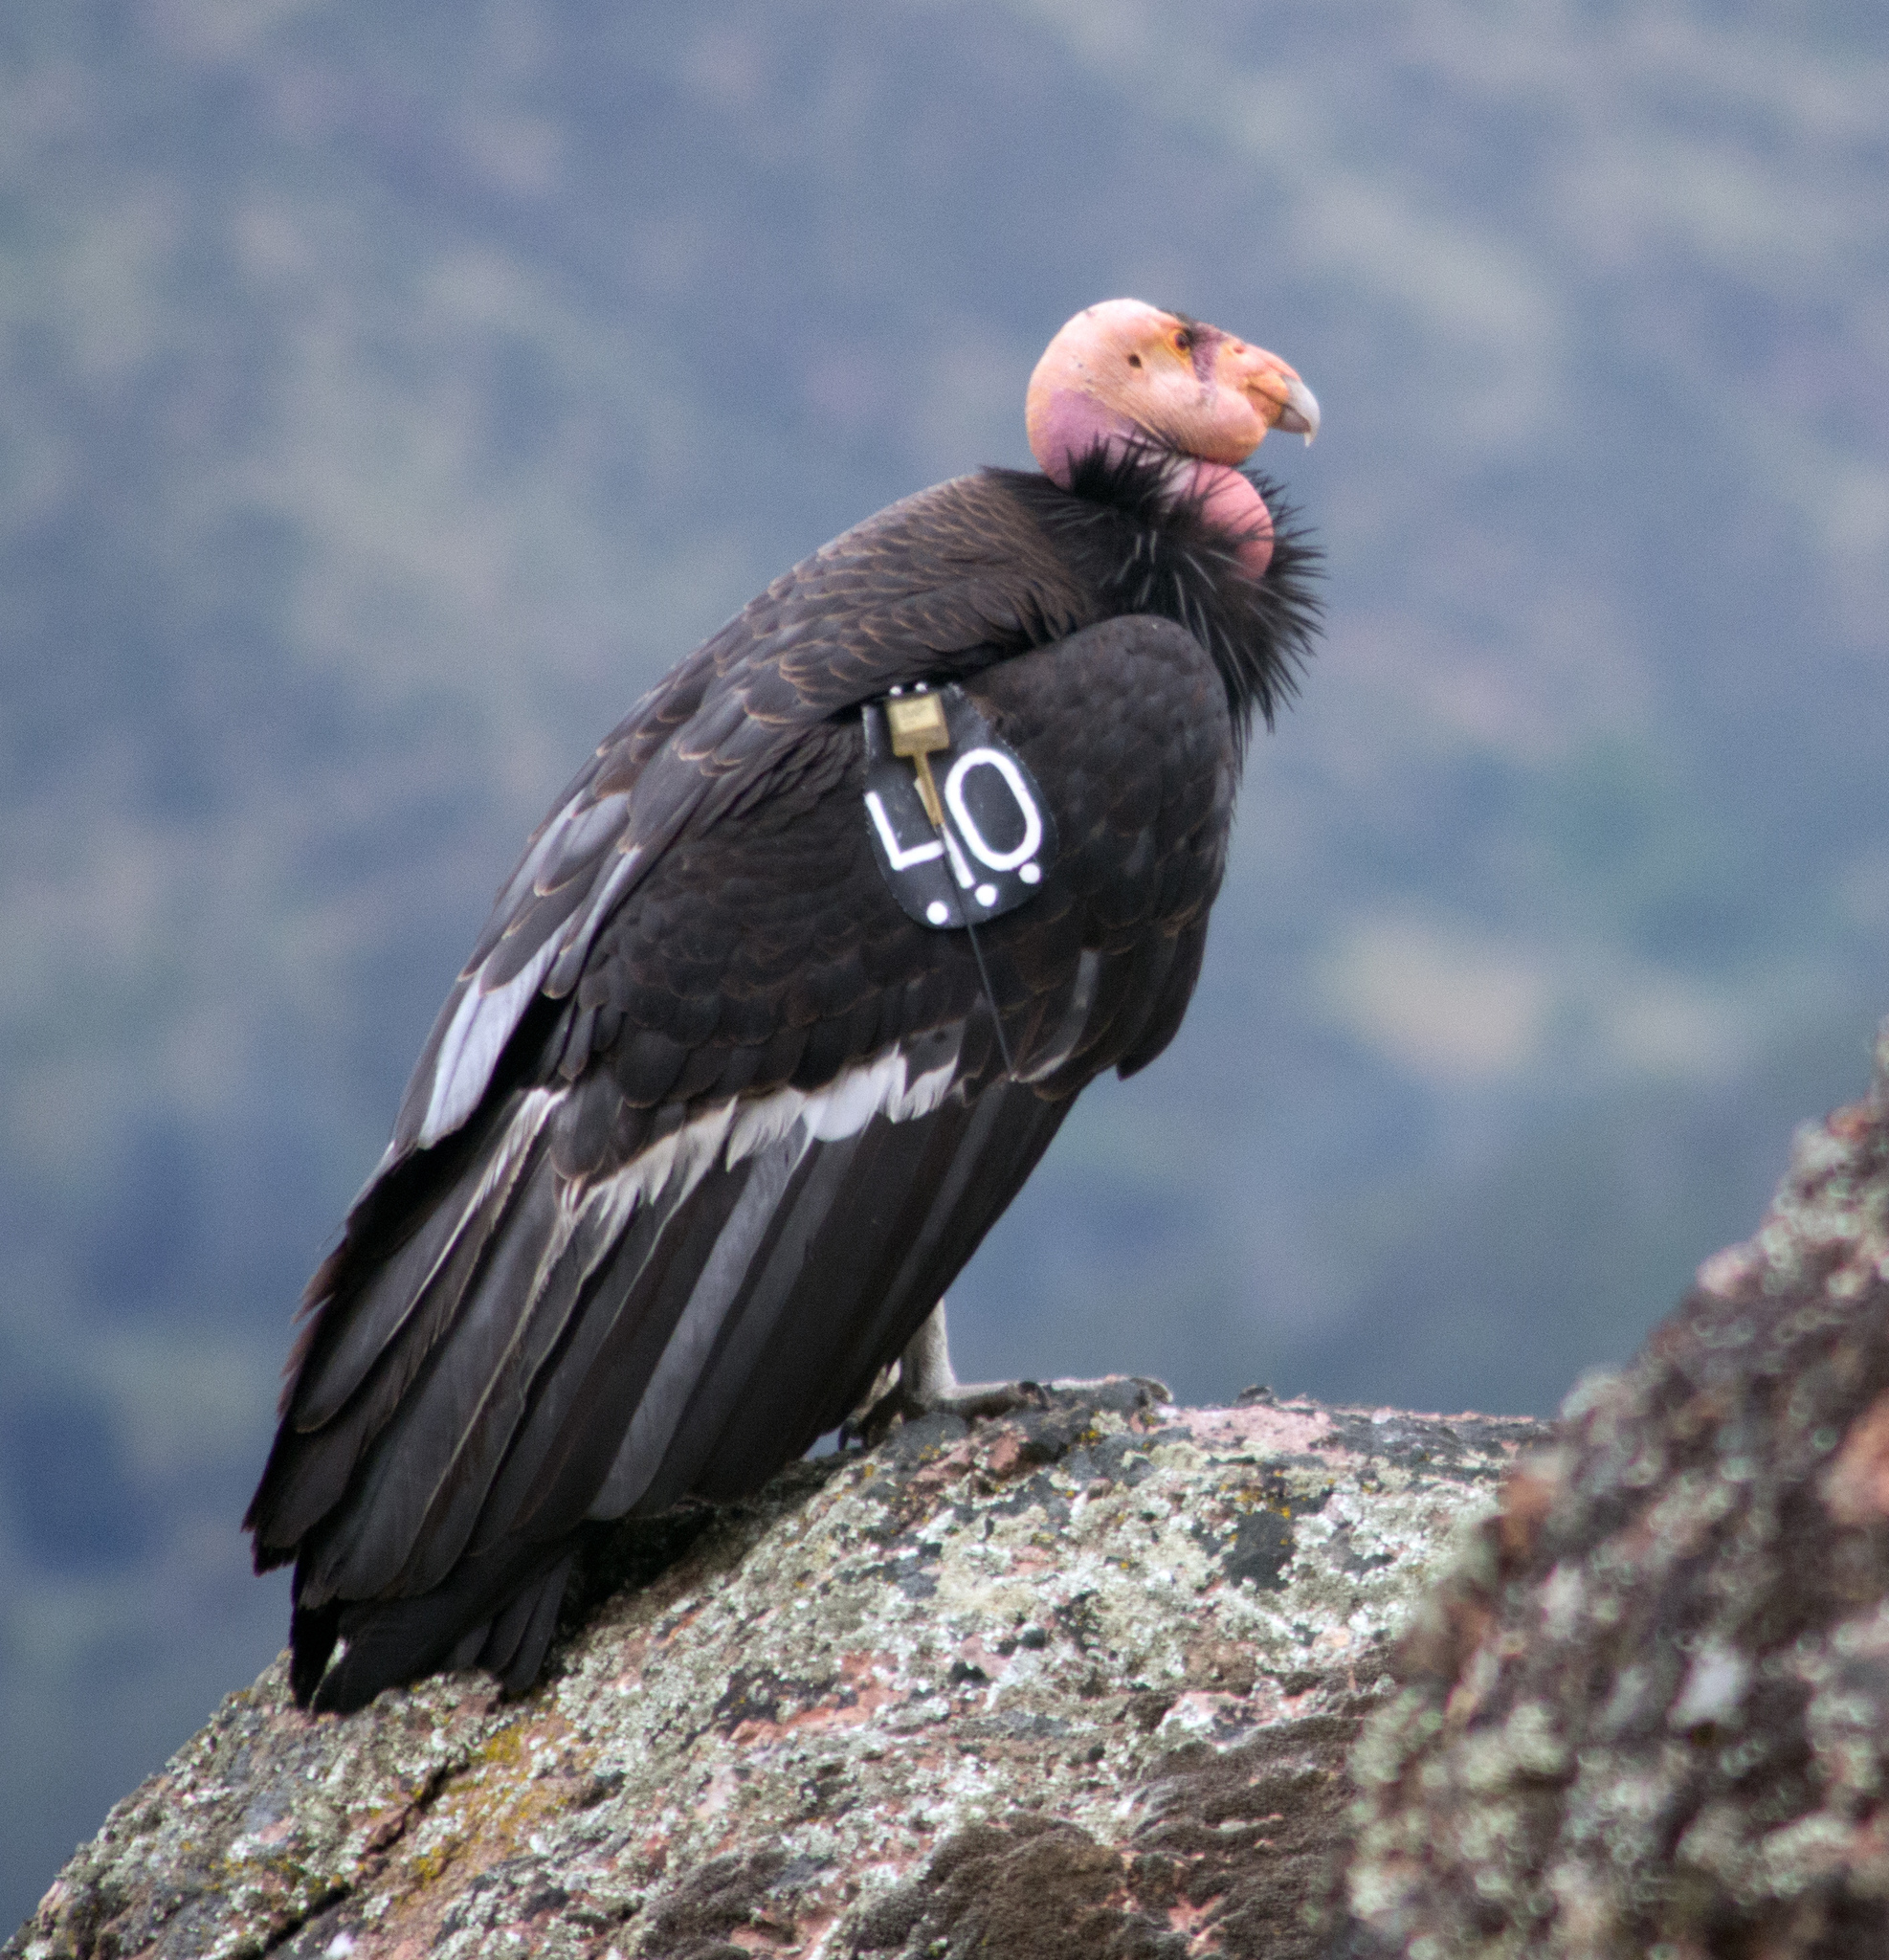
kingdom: Animalia
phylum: Chordata
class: Aves
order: Accipitriformes
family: Cathartidae
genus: Gymnogyps
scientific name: Gymnogyps californianus
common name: California condor
